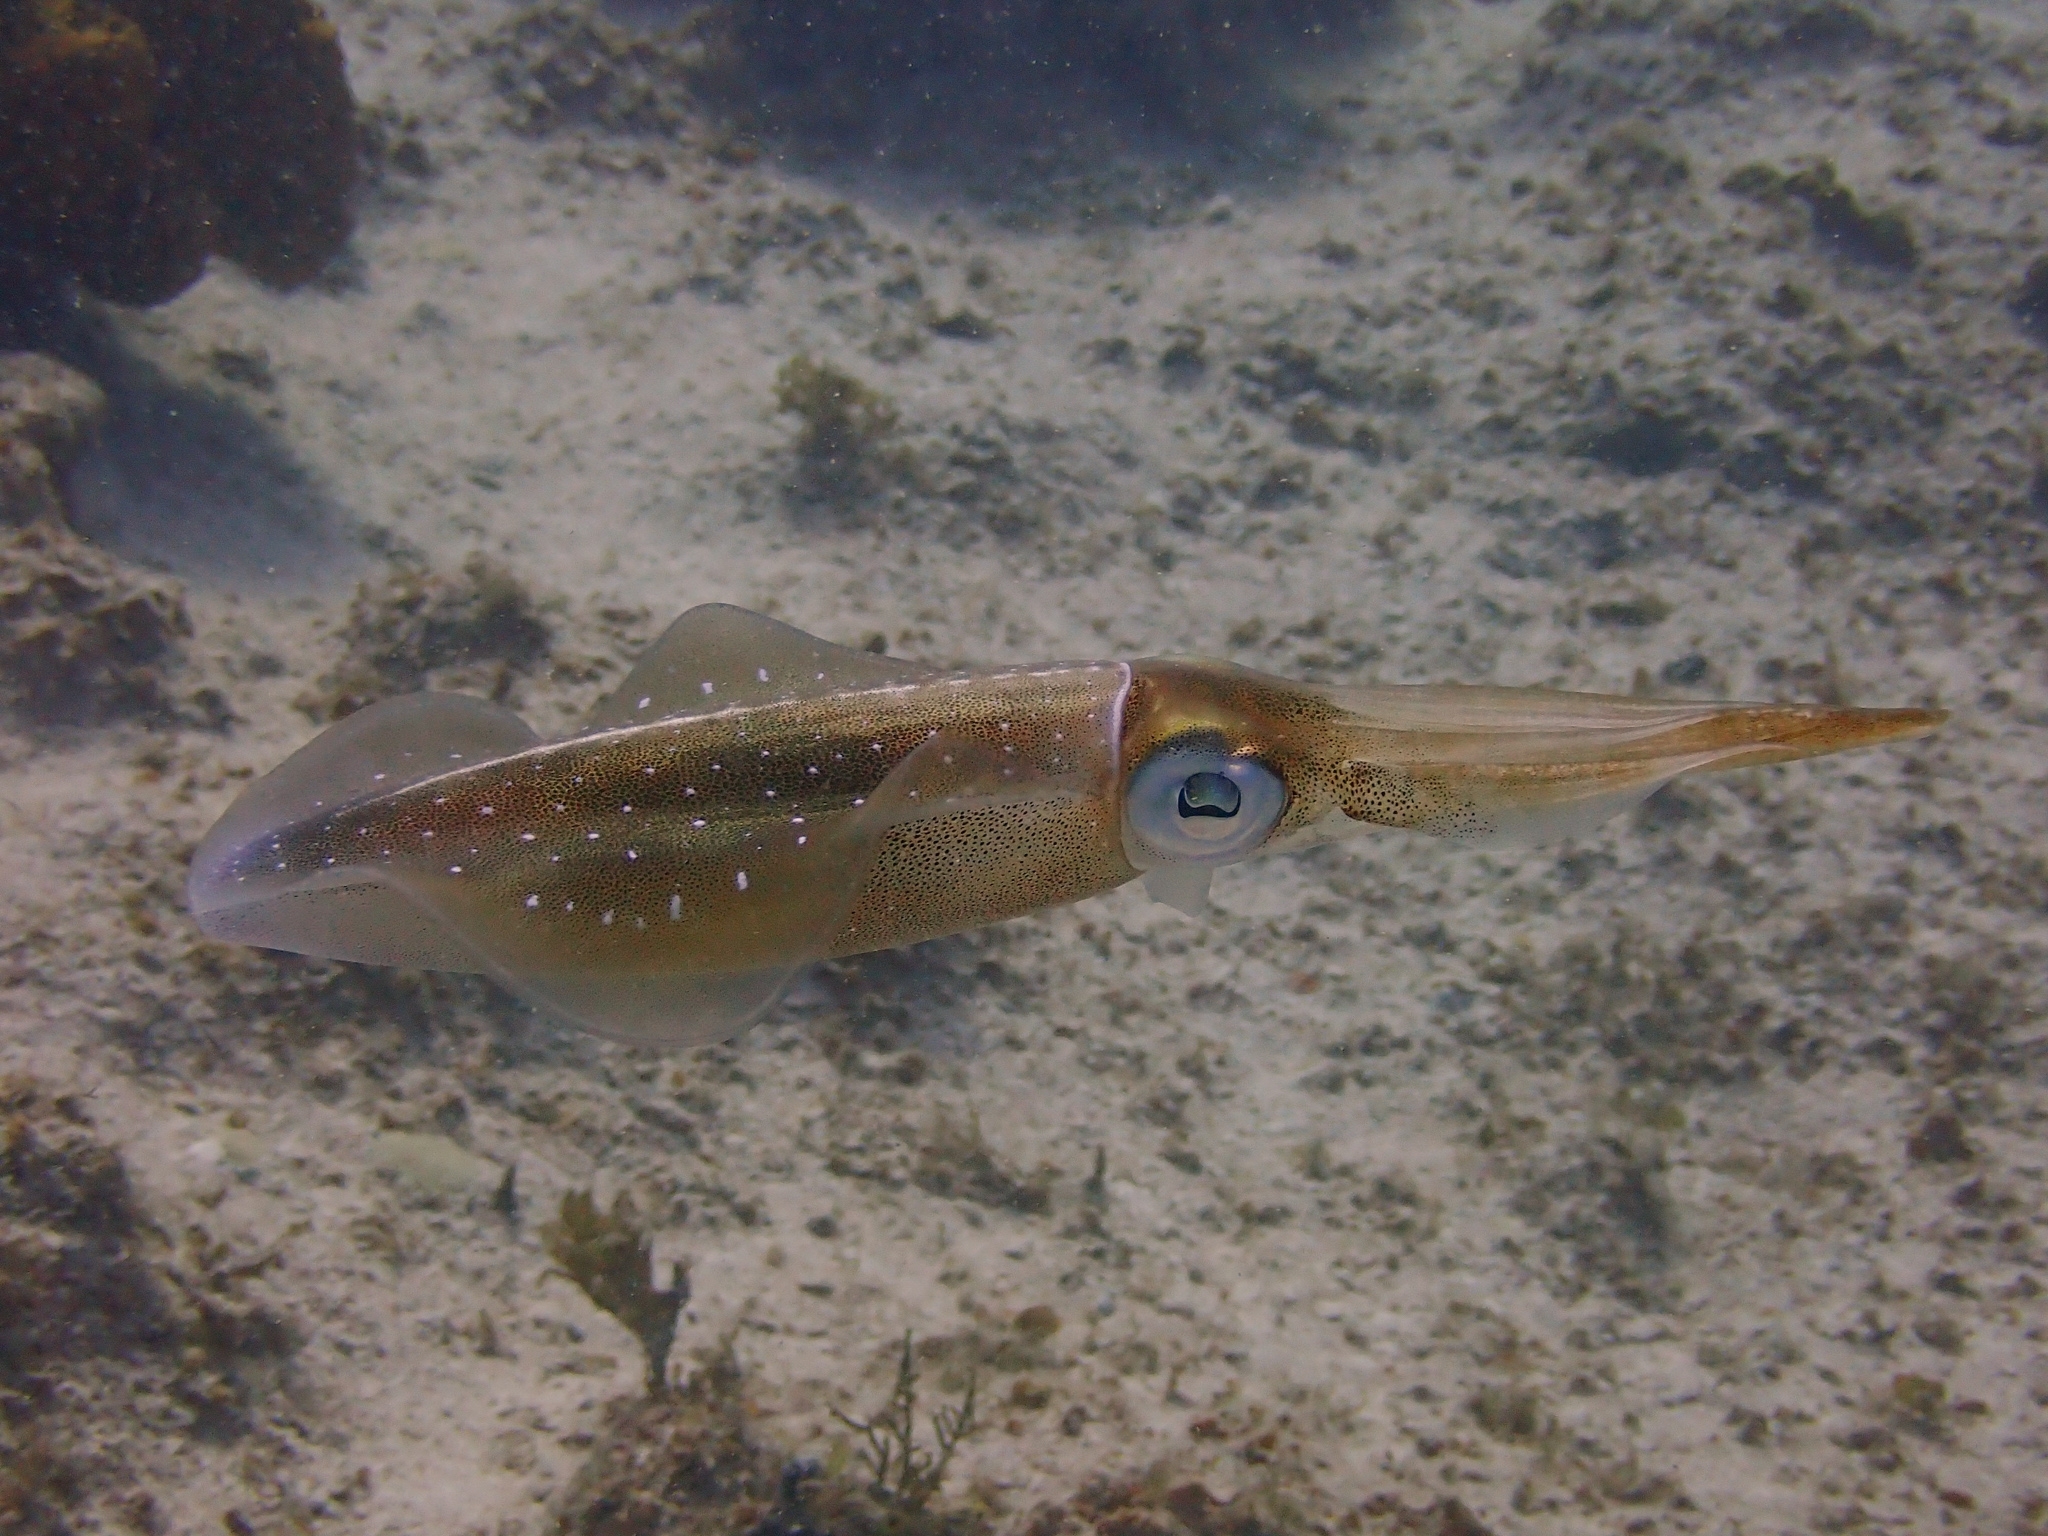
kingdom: Animalia
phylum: Mollusca
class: Cephalopoda
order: Myopsida
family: Loliginidae
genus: Sepioteuthis
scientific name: Sepioteuthis sepioidea
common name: Caribbean reef squid
